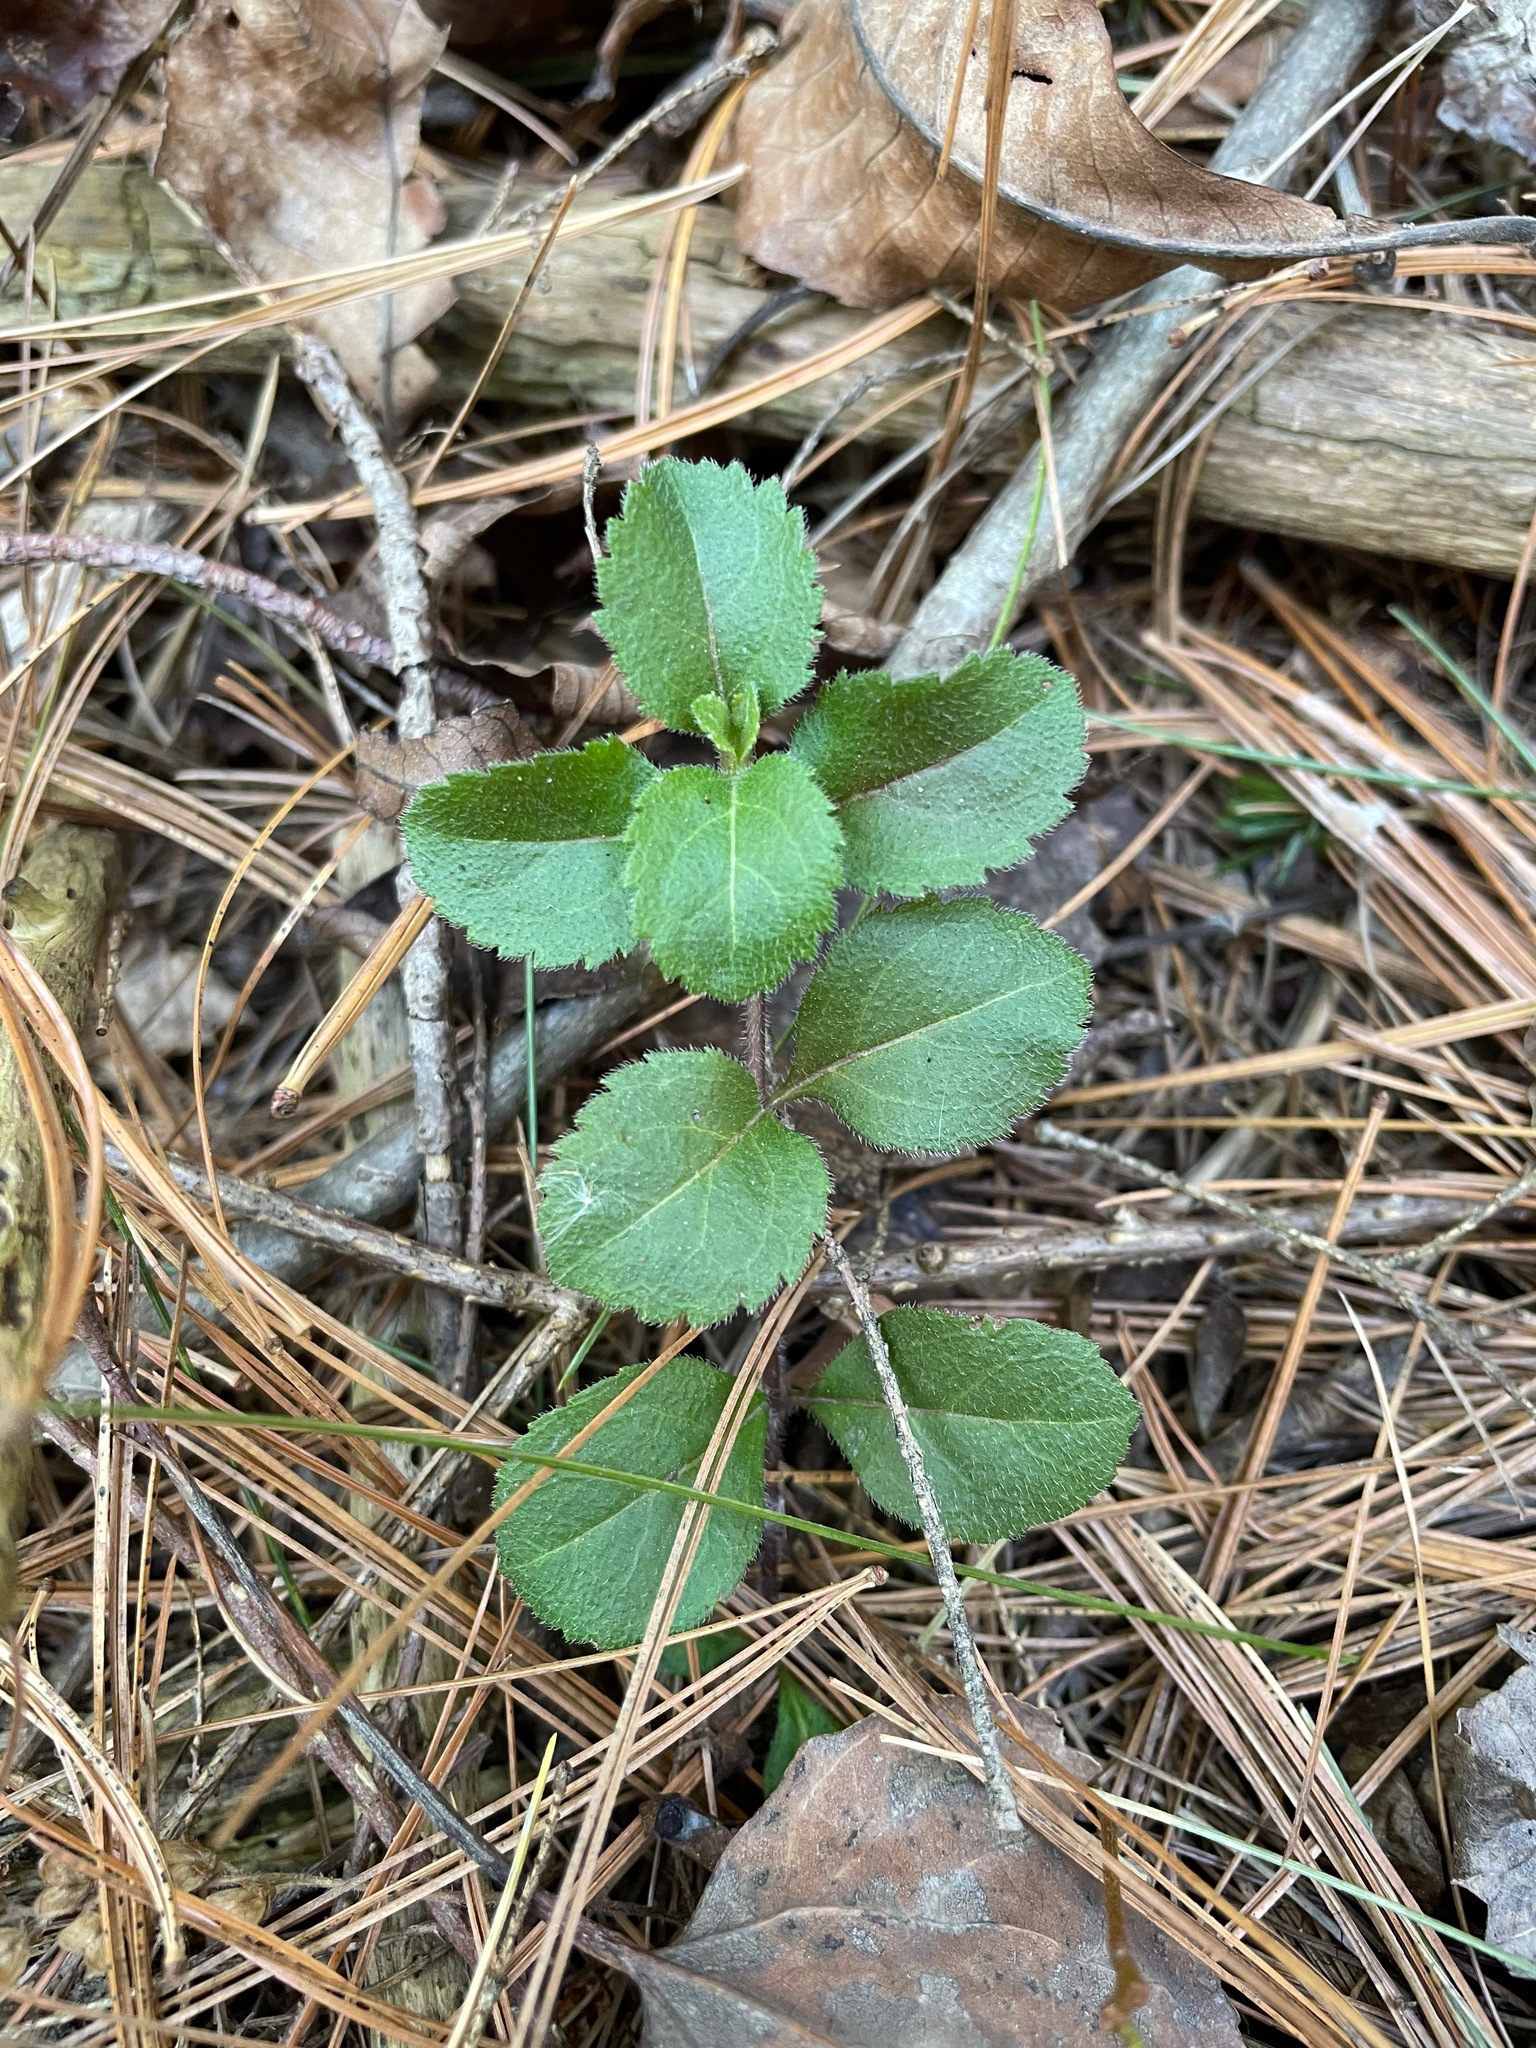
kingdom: Plantae
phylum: Tracheophyta
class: Magnoliopsida
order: Lamiales
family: Plantaginaceae
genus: Veronica
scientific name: Veronica officinalis
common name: Common speedwell
